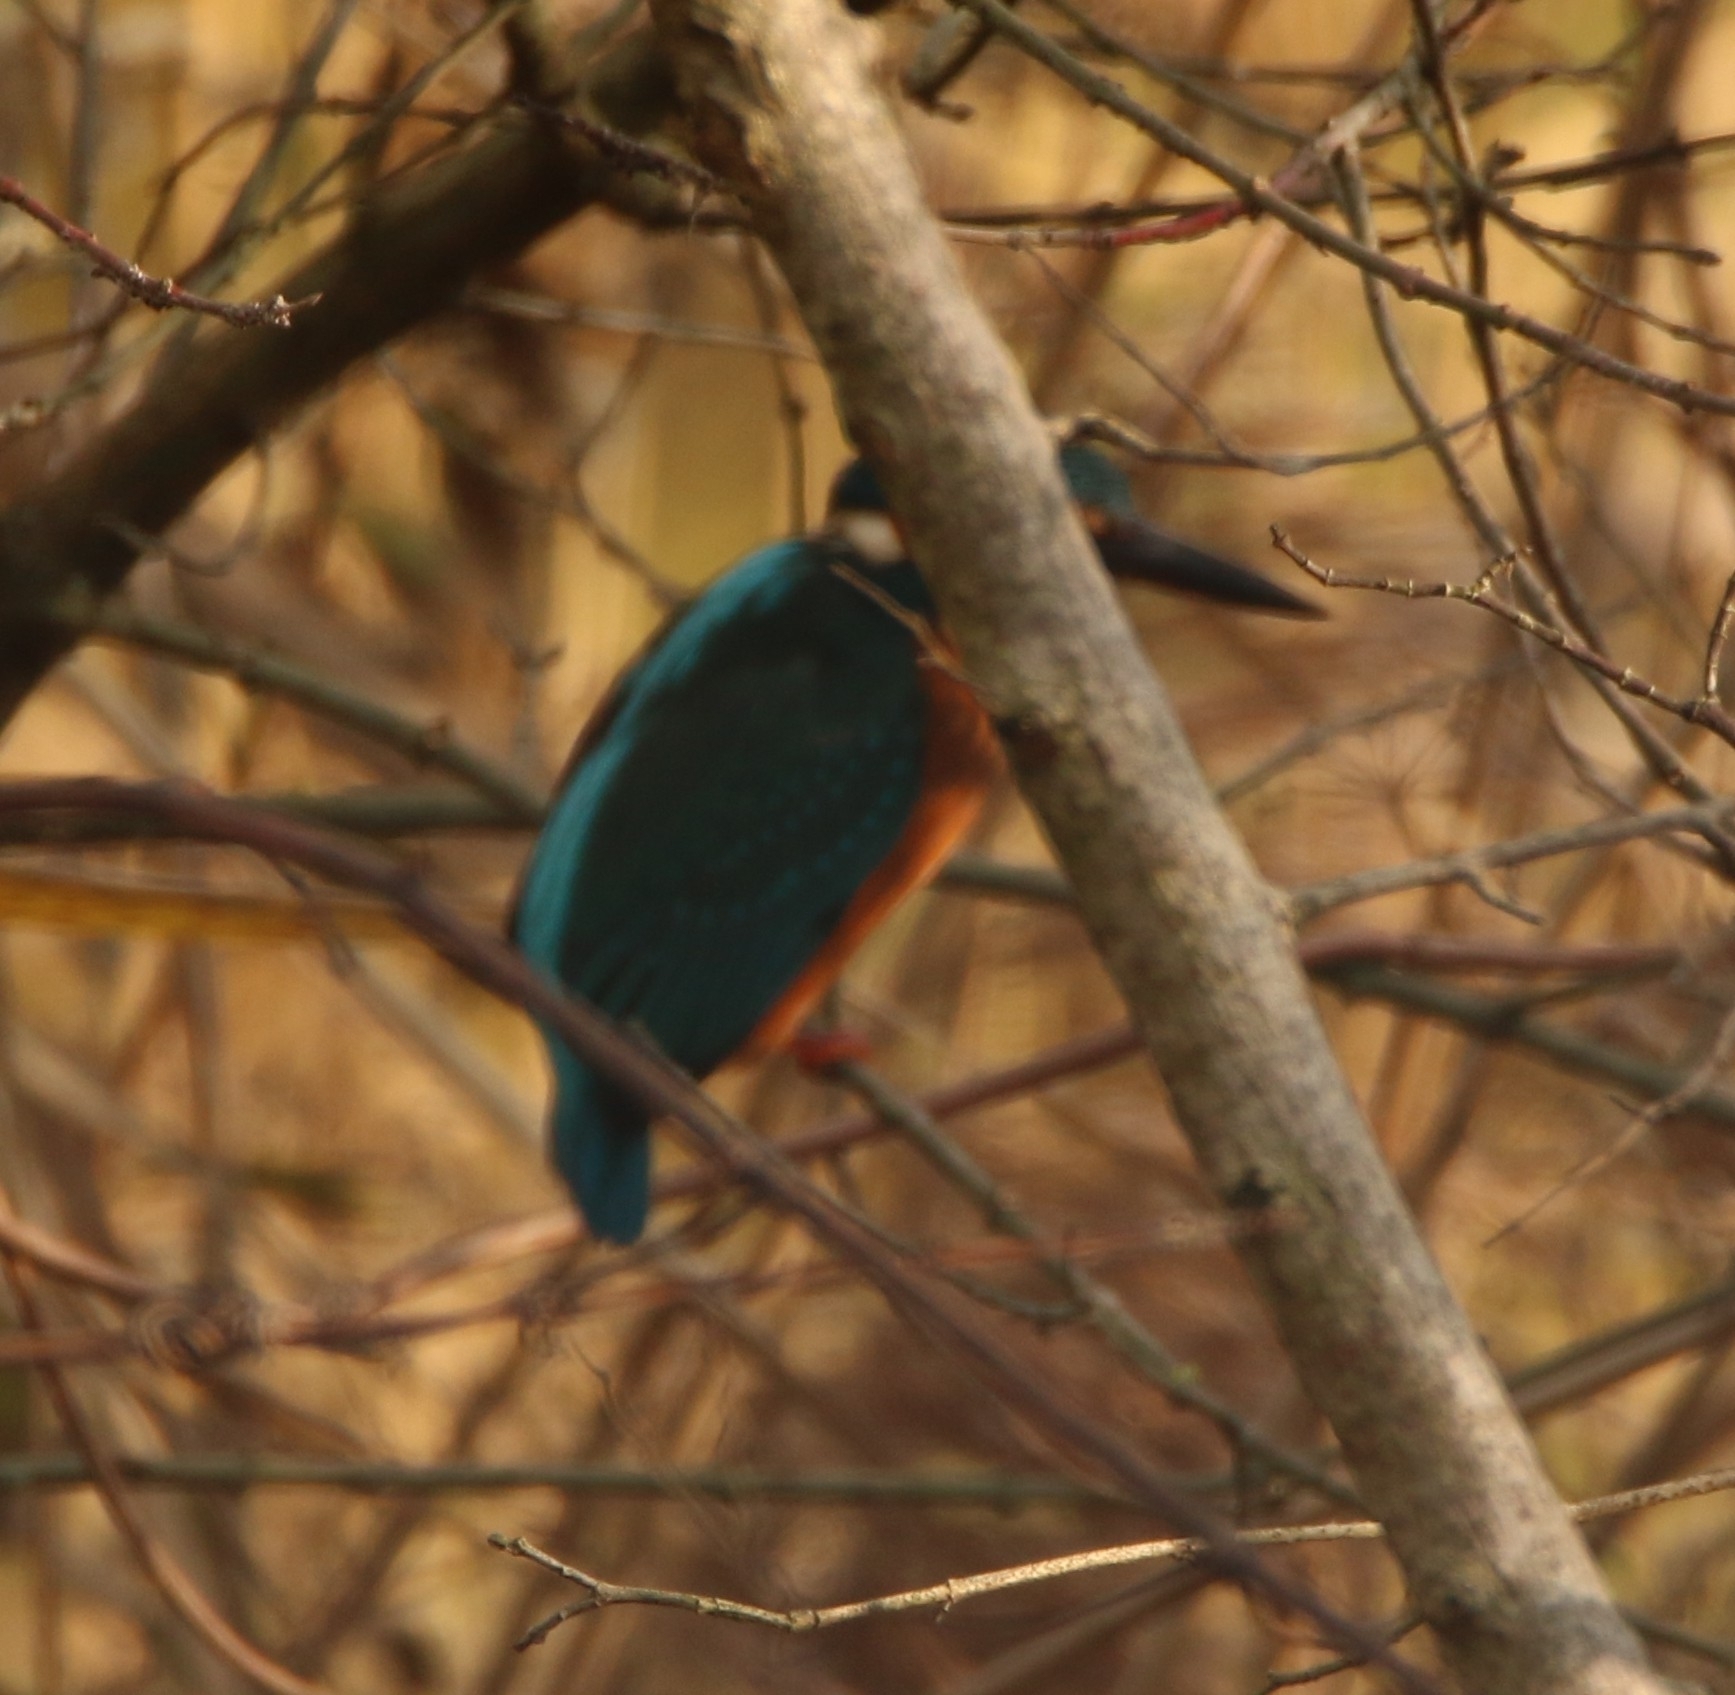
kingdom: Animalia
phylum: Chordata
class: Aves
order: Coraciiformes
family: Alcedinidae
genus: Alcedo
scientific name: Alcedo atthis
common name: Common kingfisher
